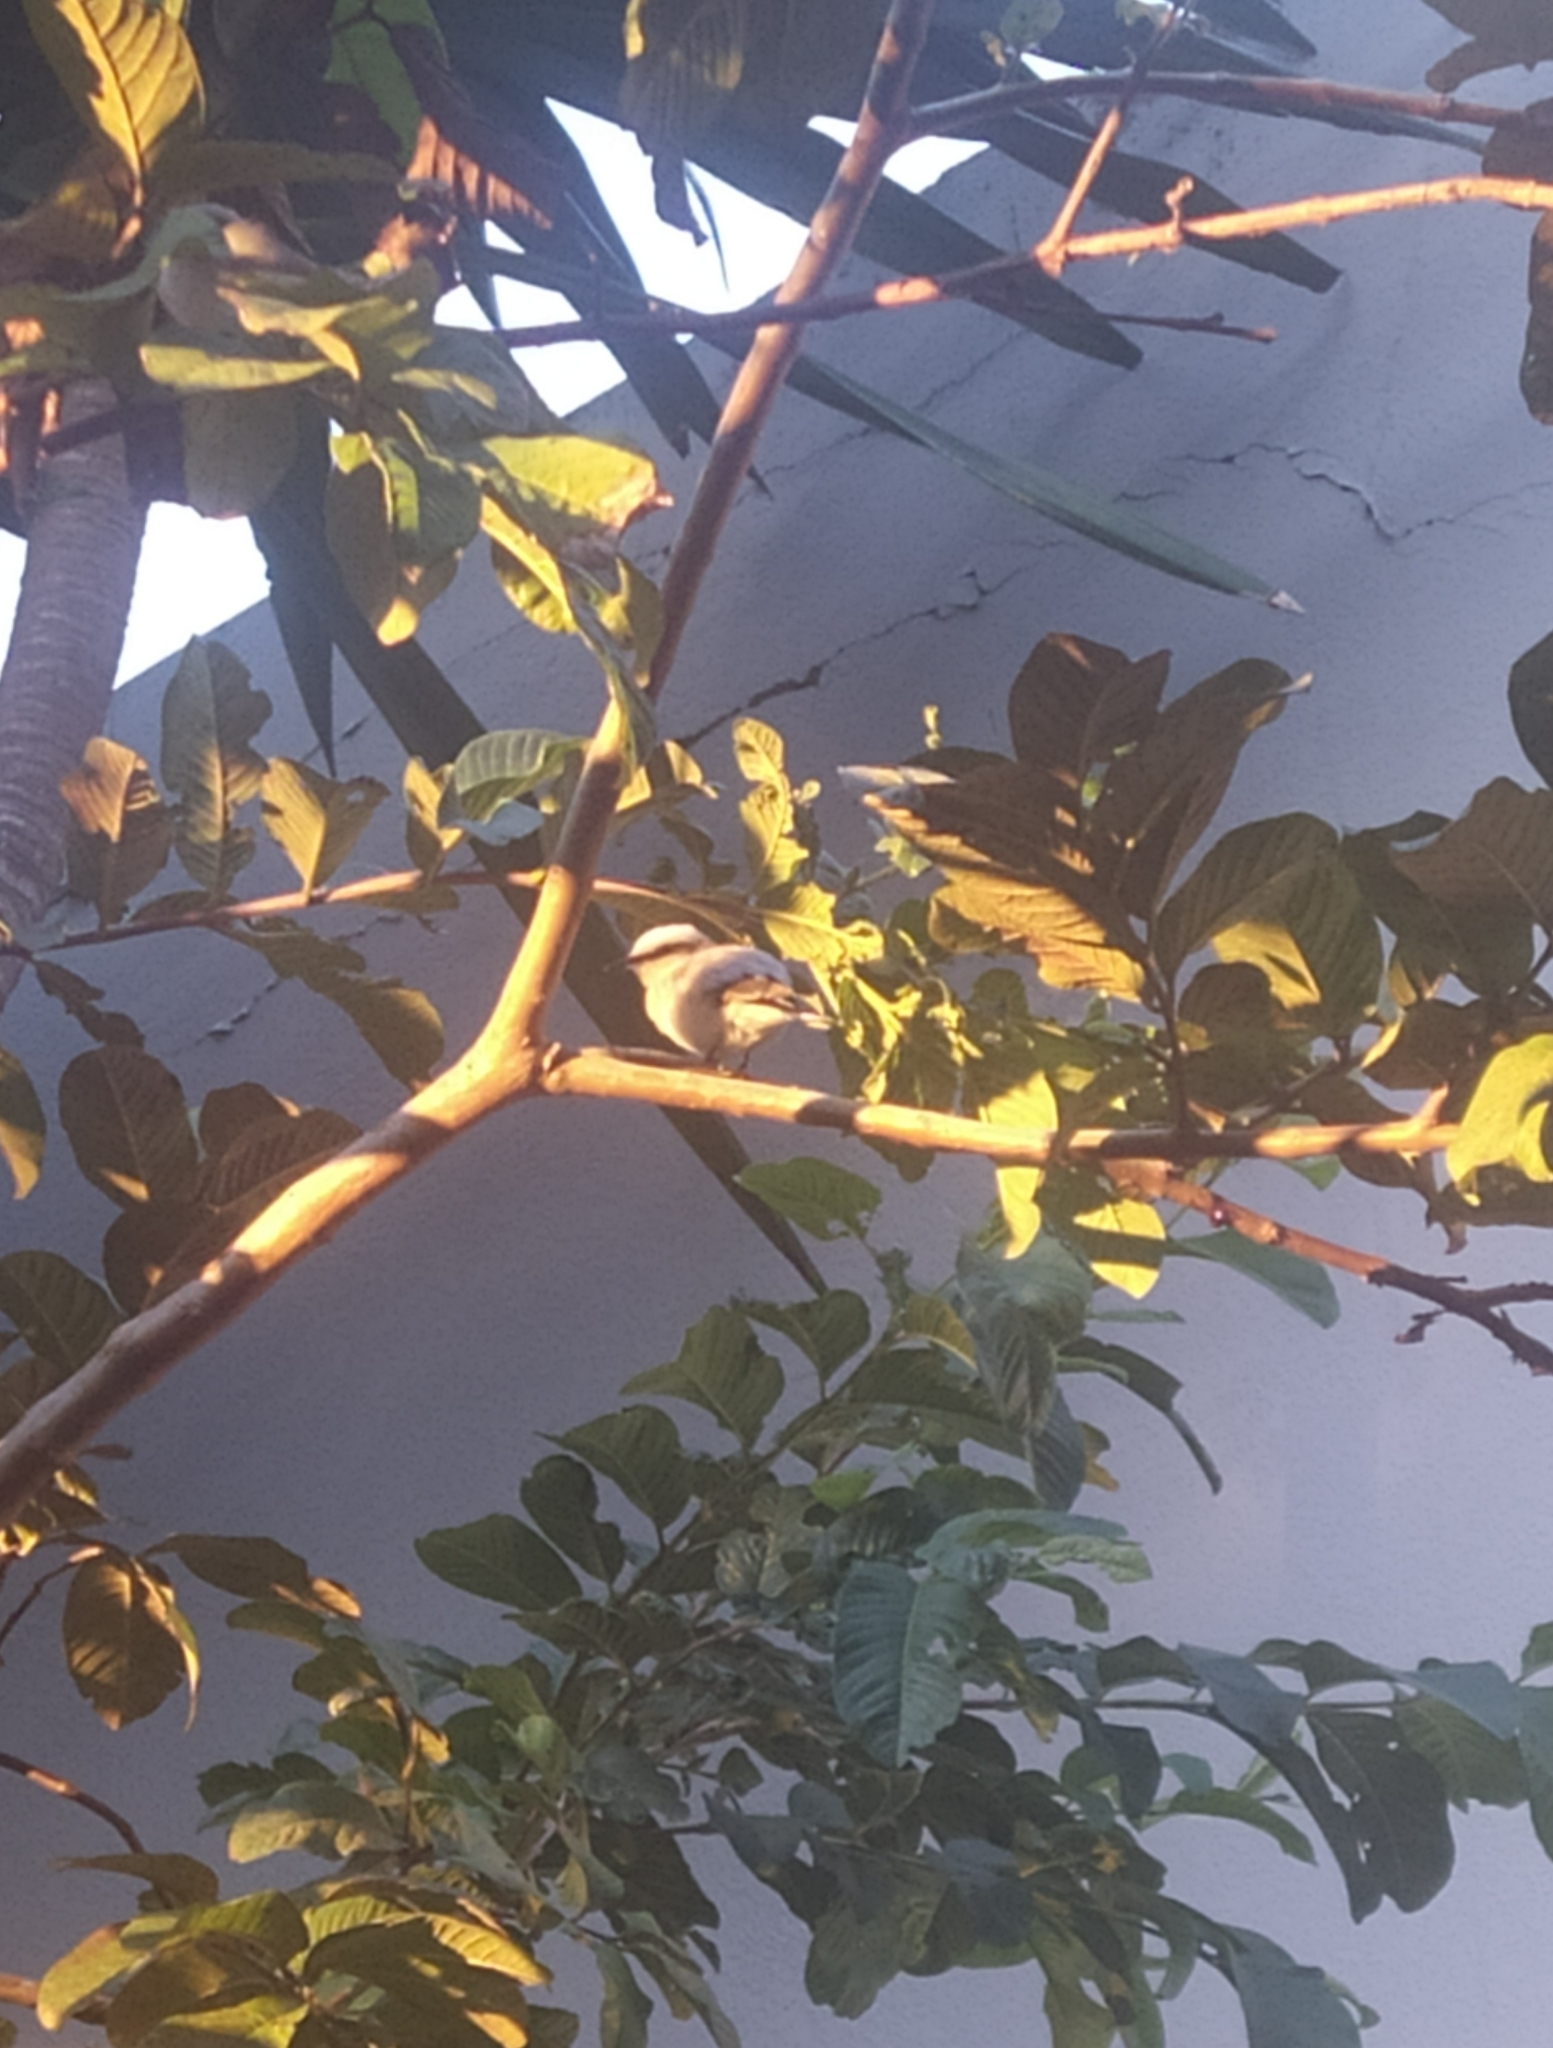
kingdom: Animalia
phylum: Chordata
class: Aves
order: Passeriformes
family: Tyrannidae
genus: Fluvicola
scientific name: Fluvicola nengeta
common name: Masked water tyrant
